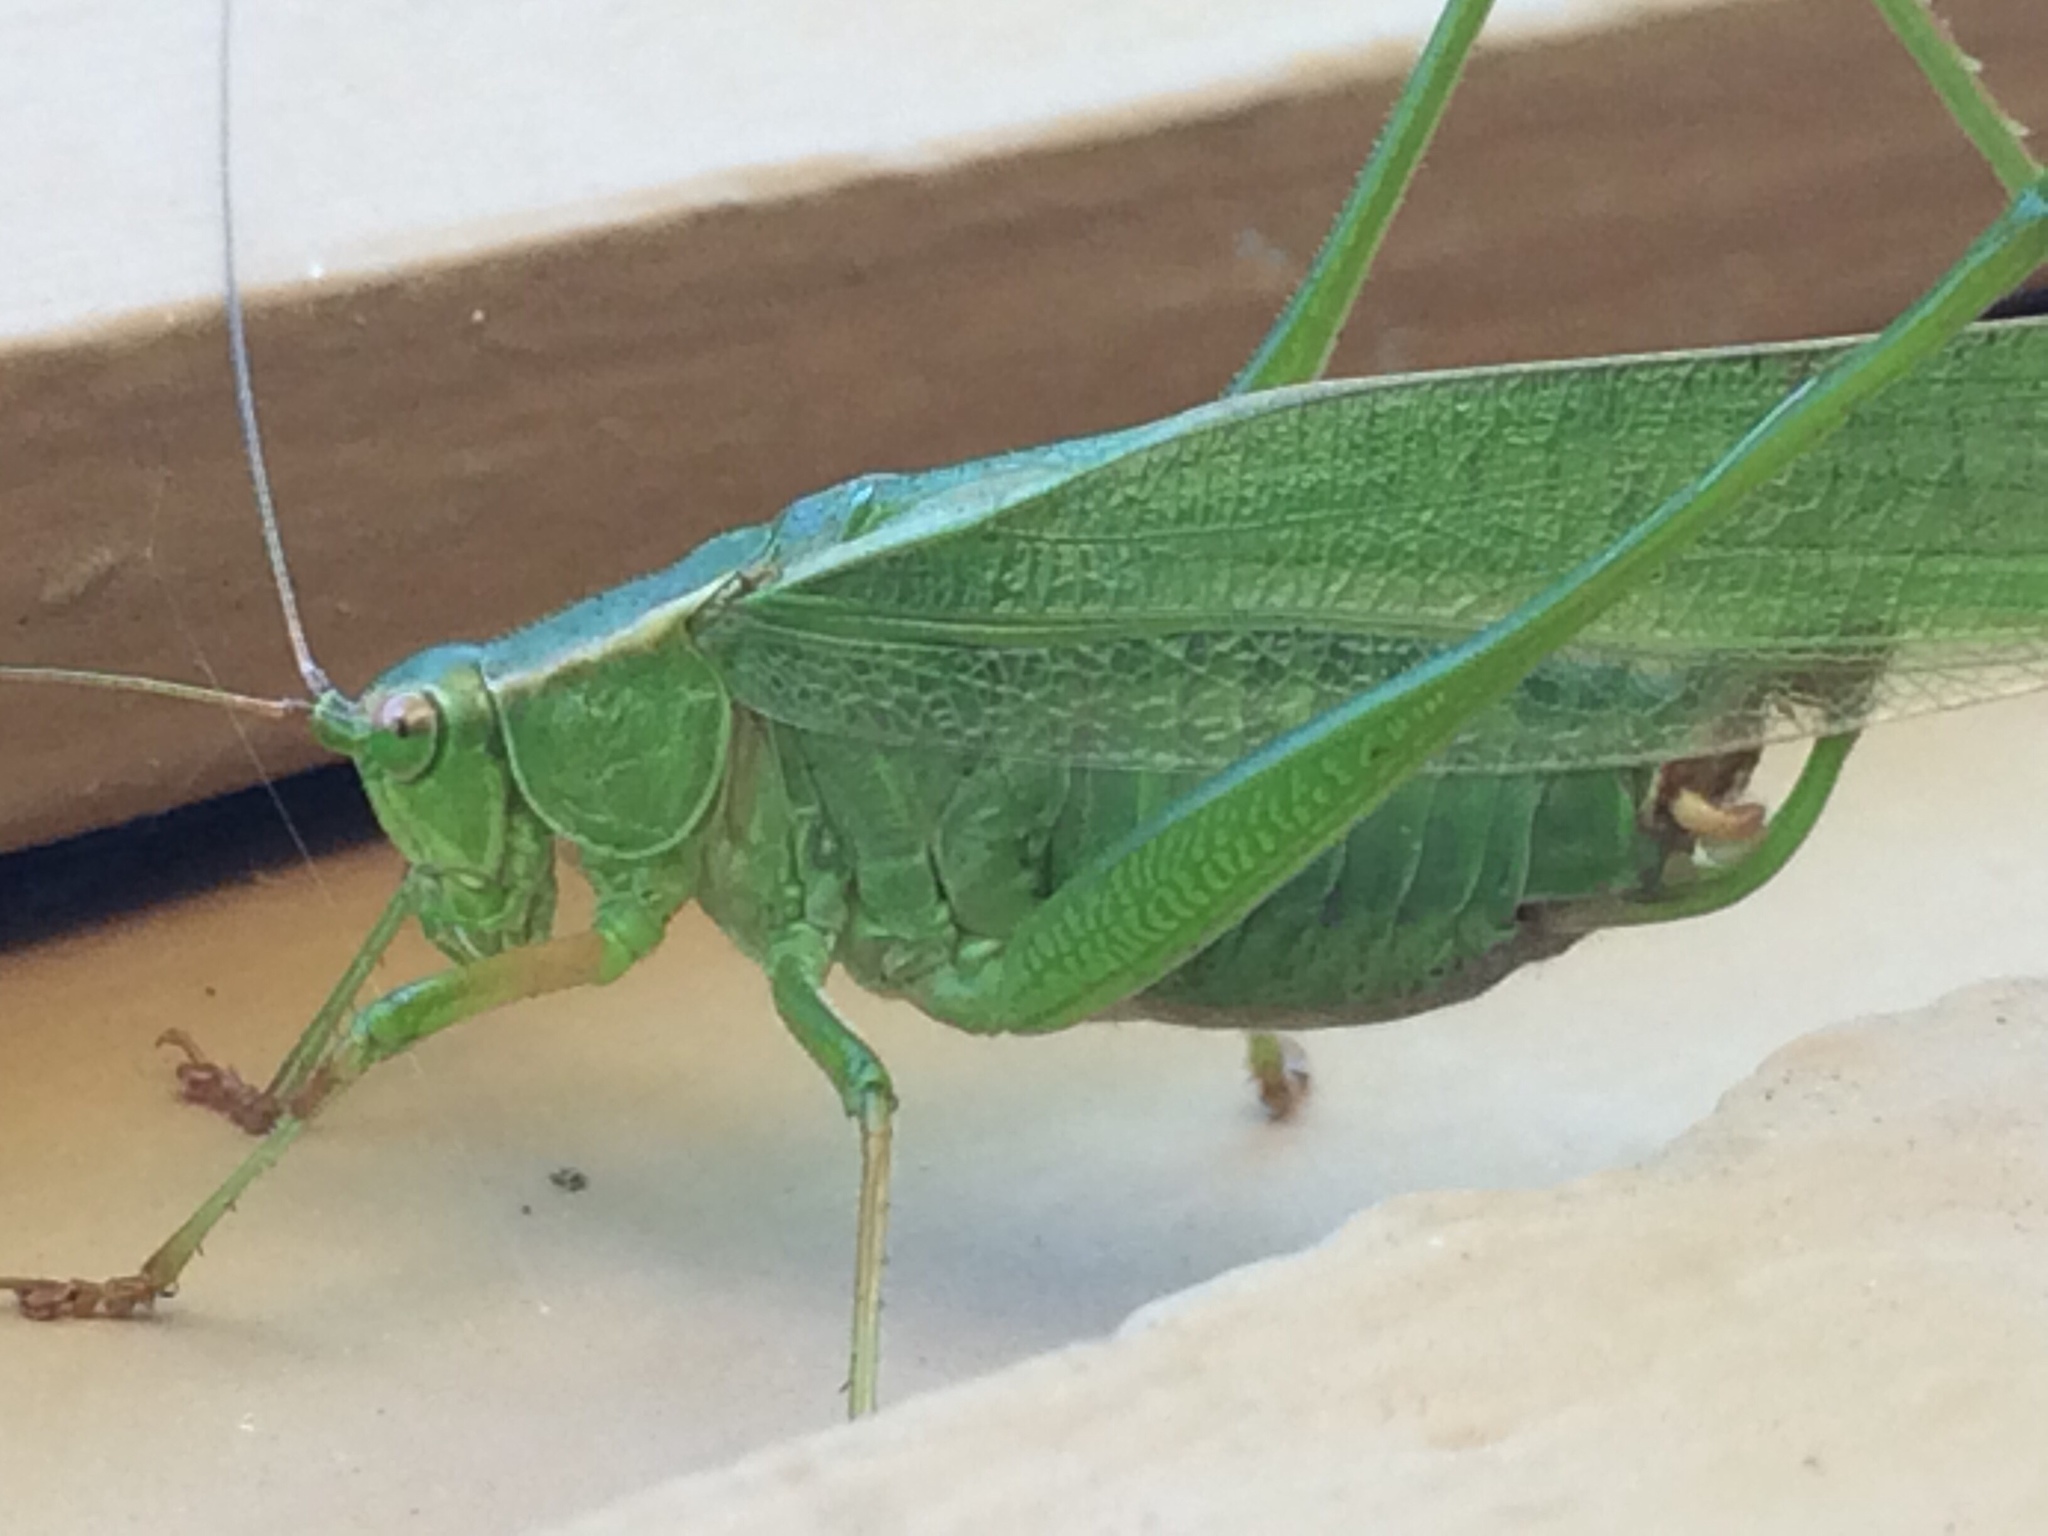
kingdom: Animalia
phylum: Arthropoda
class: Insecta
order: Orthoptera
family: Tettigoniidae
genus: Scudderia
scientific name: Scudderia furcata
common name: Fork-tailed bush katydid
